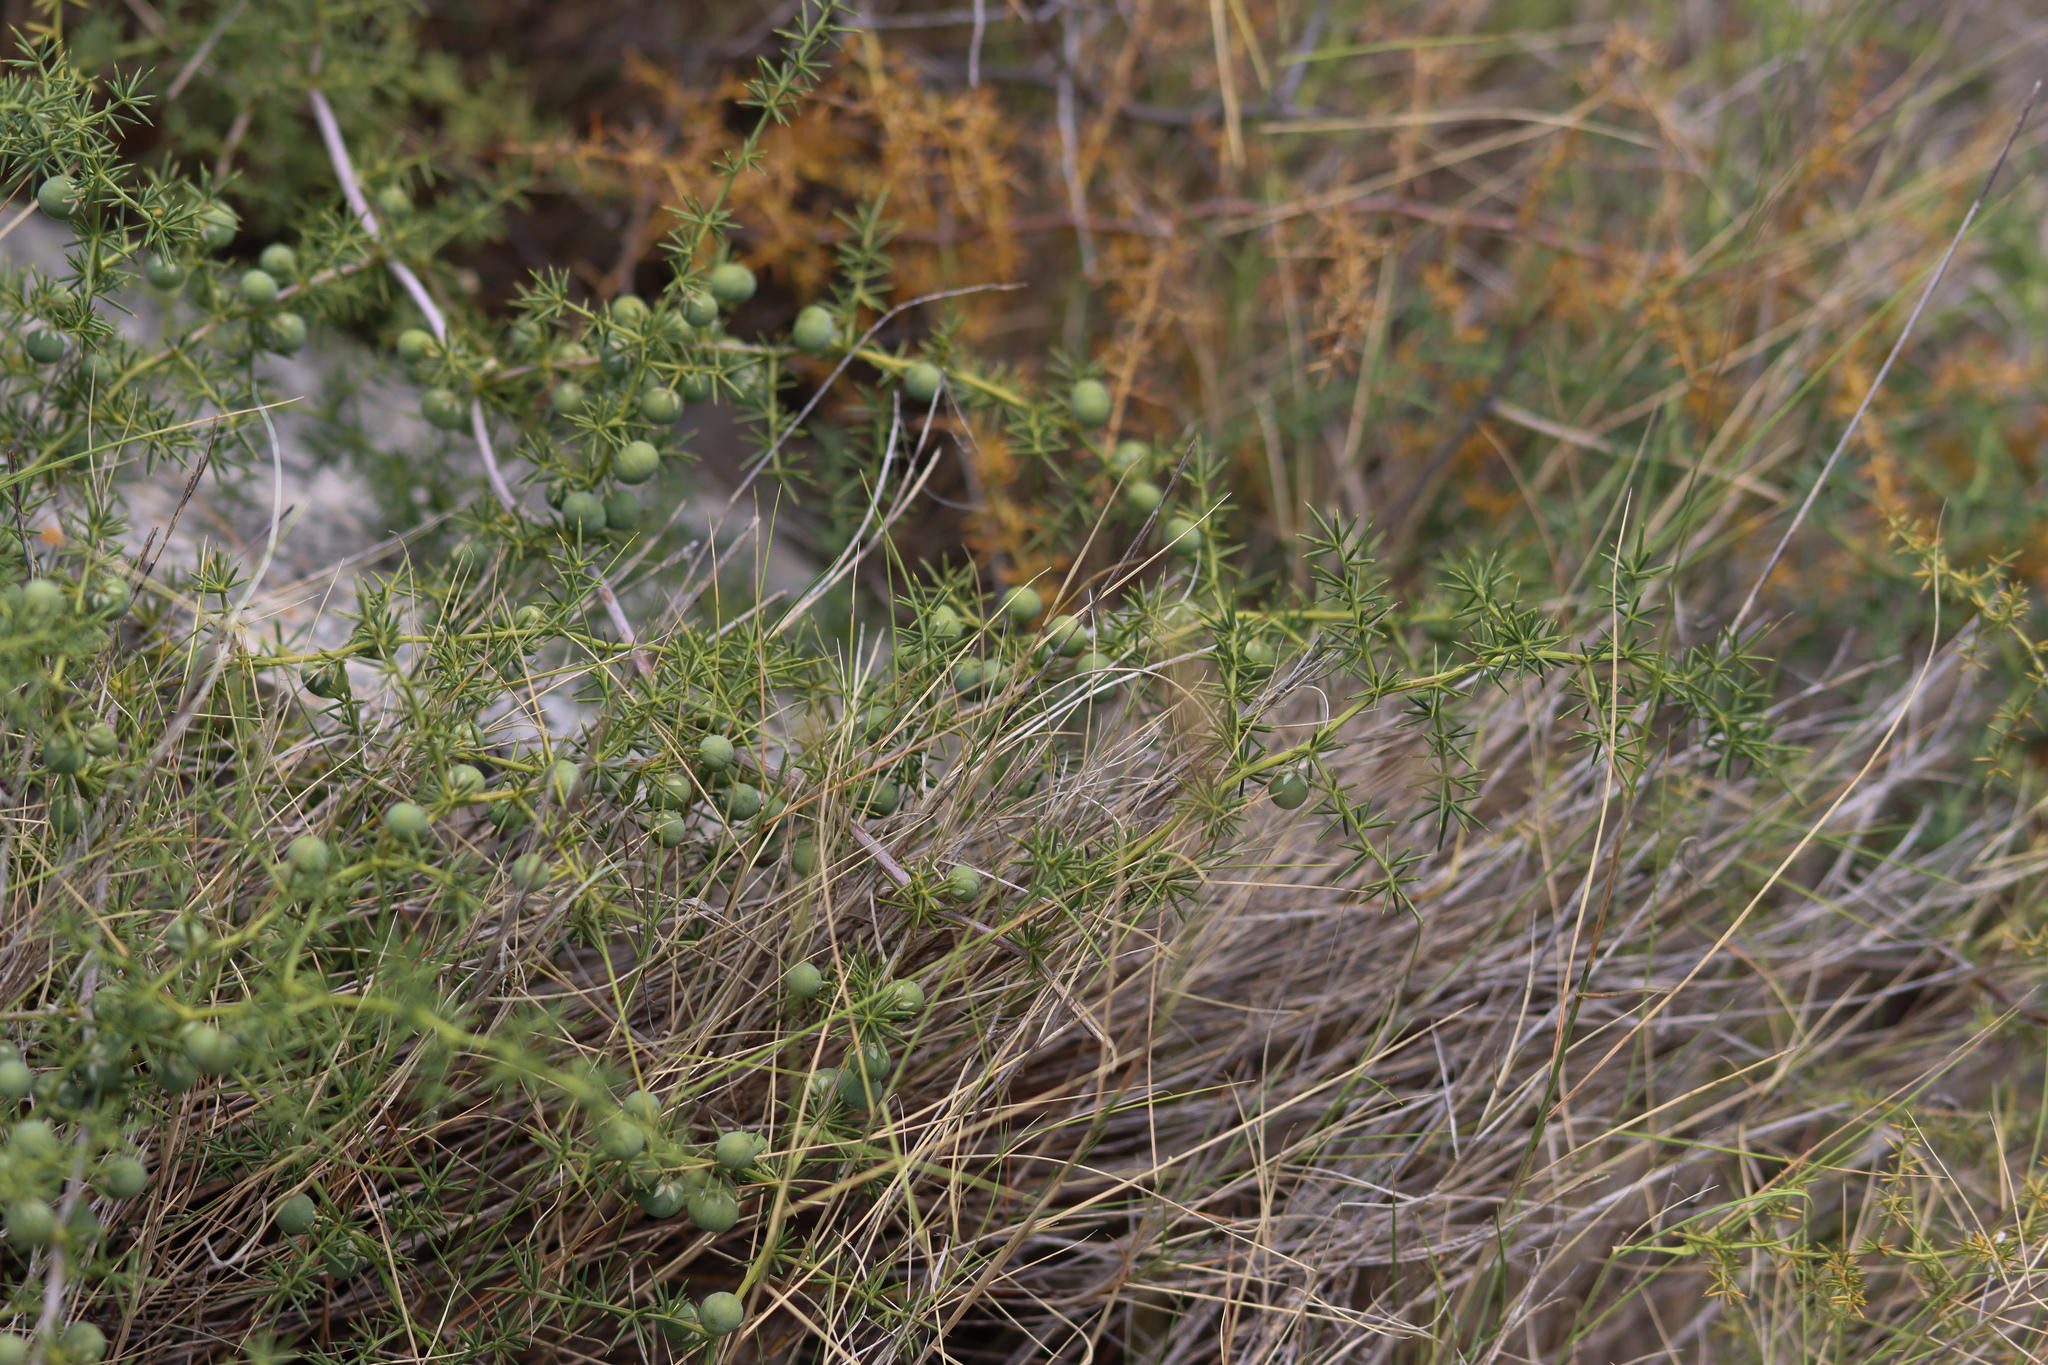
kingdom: Plantae
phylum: Tracheophyta
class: Liliopsida
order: Asparagales
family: Asparagaceae
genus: Asparagus
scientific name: Asparagus acutifolius
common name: Wild asparagus
